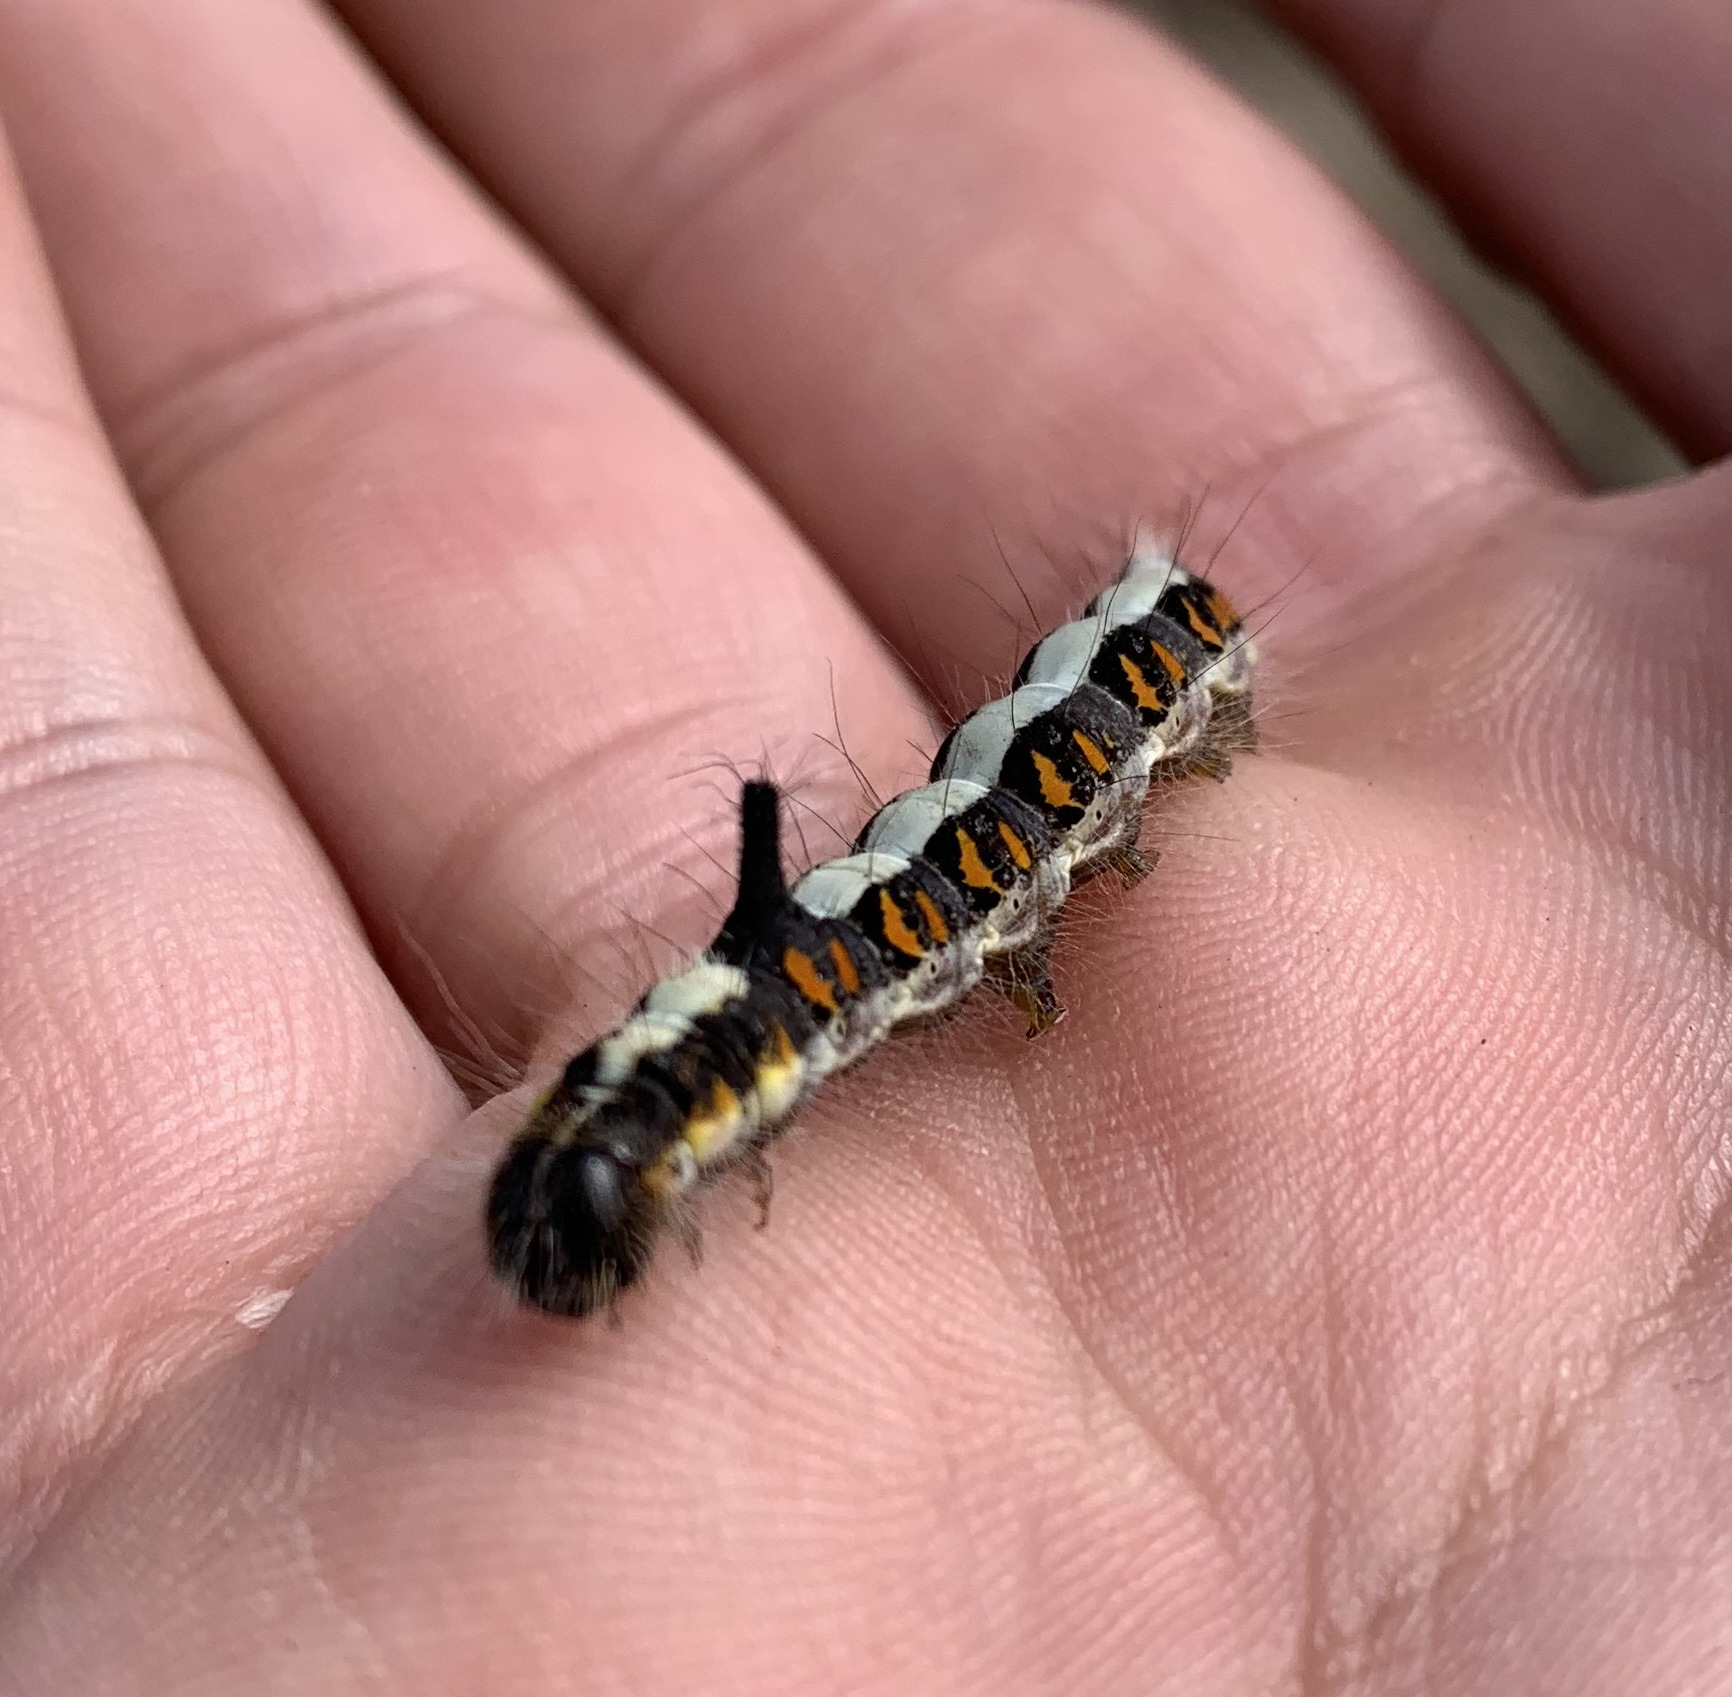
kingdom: Animalia
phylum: Arthropoda
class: Insecta
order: Lepidoptera
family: Noctuidae
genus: Acronicta
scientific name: Acronicta psi
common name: Grey dagger
